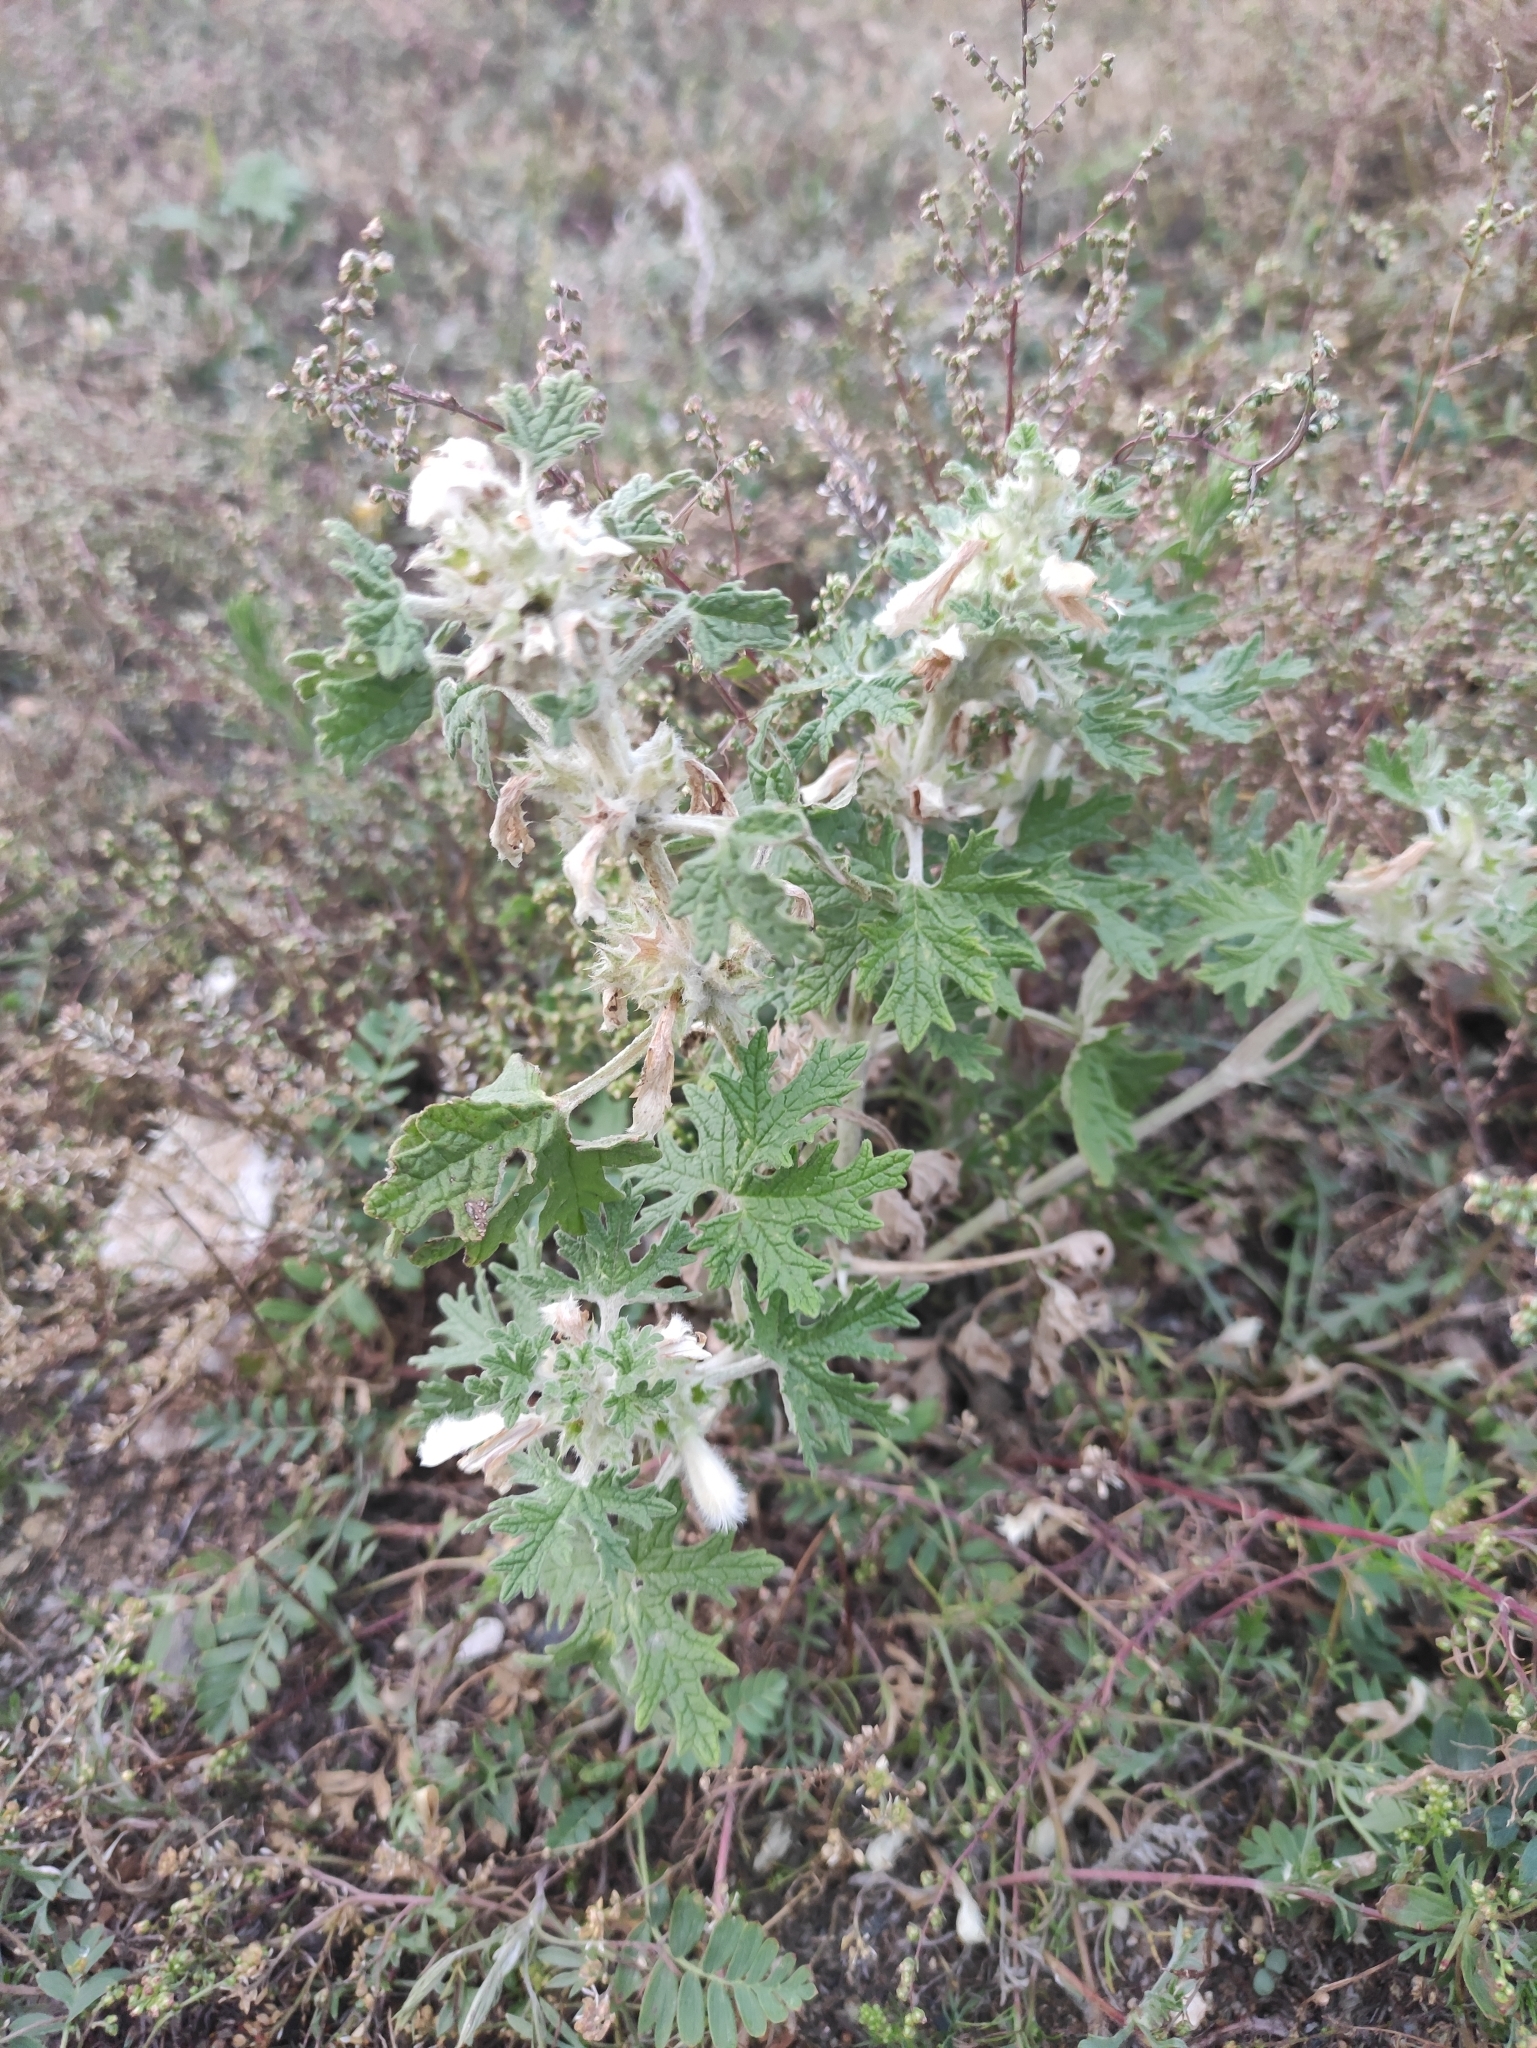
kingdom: Plantae
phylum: Tracheophyta
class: Magnoliopsida
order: Lamiales
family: Lamiaceae
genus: Panzerina
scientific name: Panzerina lanata
